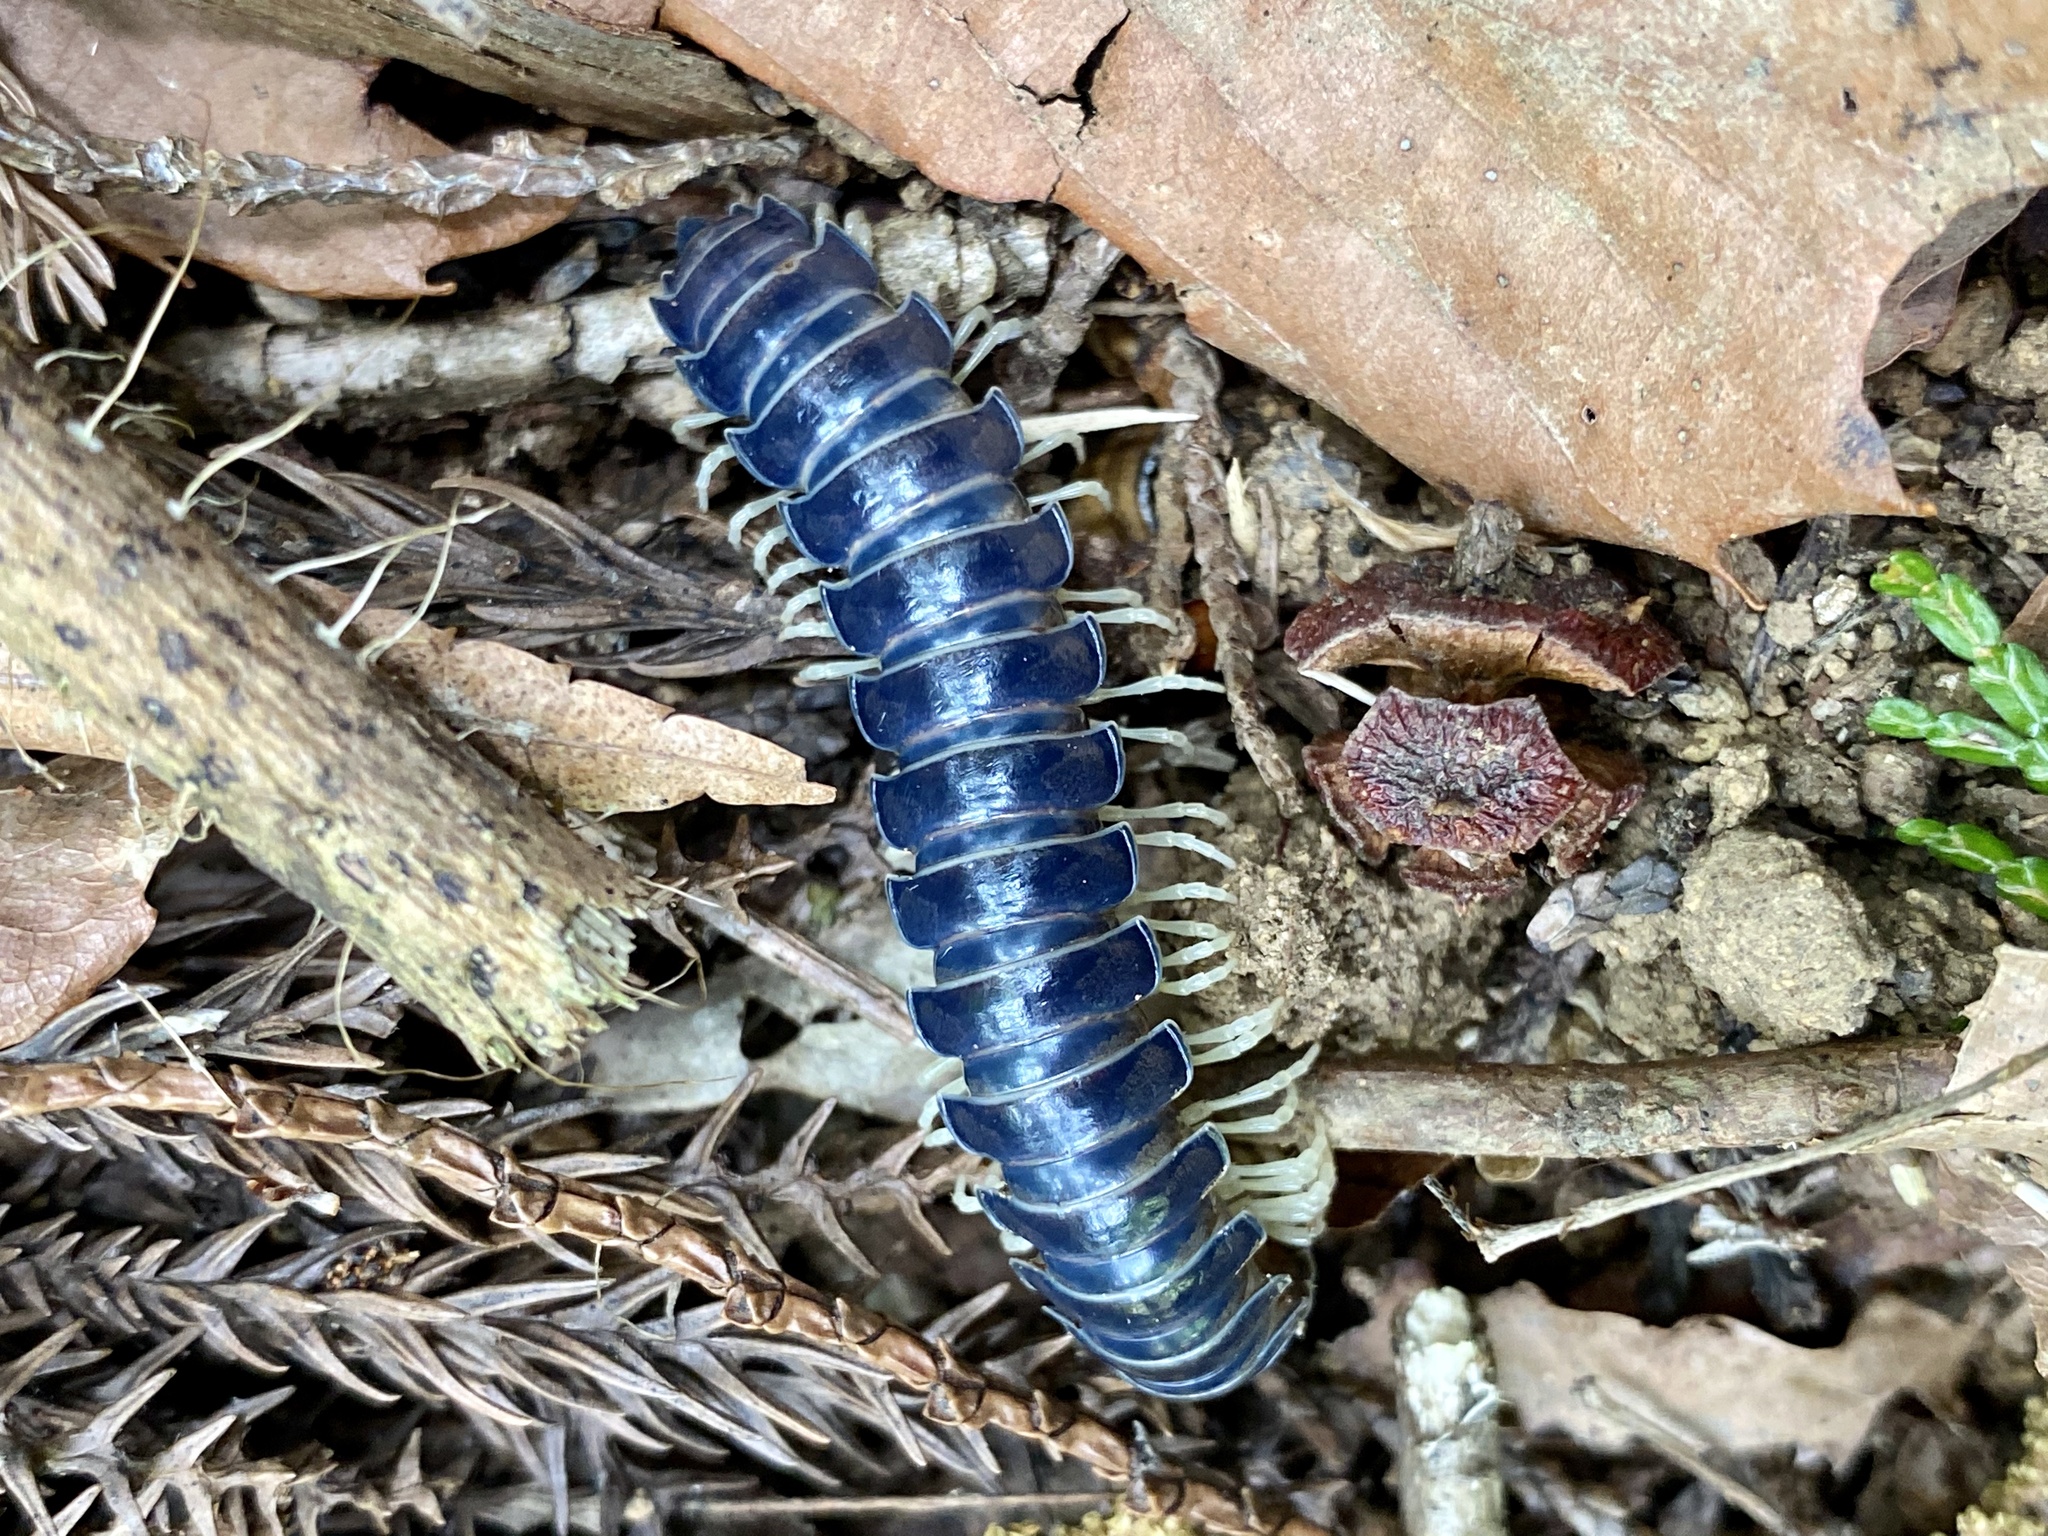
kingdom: Animalia
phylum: Arthropoda
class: Diplopoda
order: Polydesmida
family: Xystodesmidae
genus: Parafontaria
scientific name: Parafontaria tonominea
